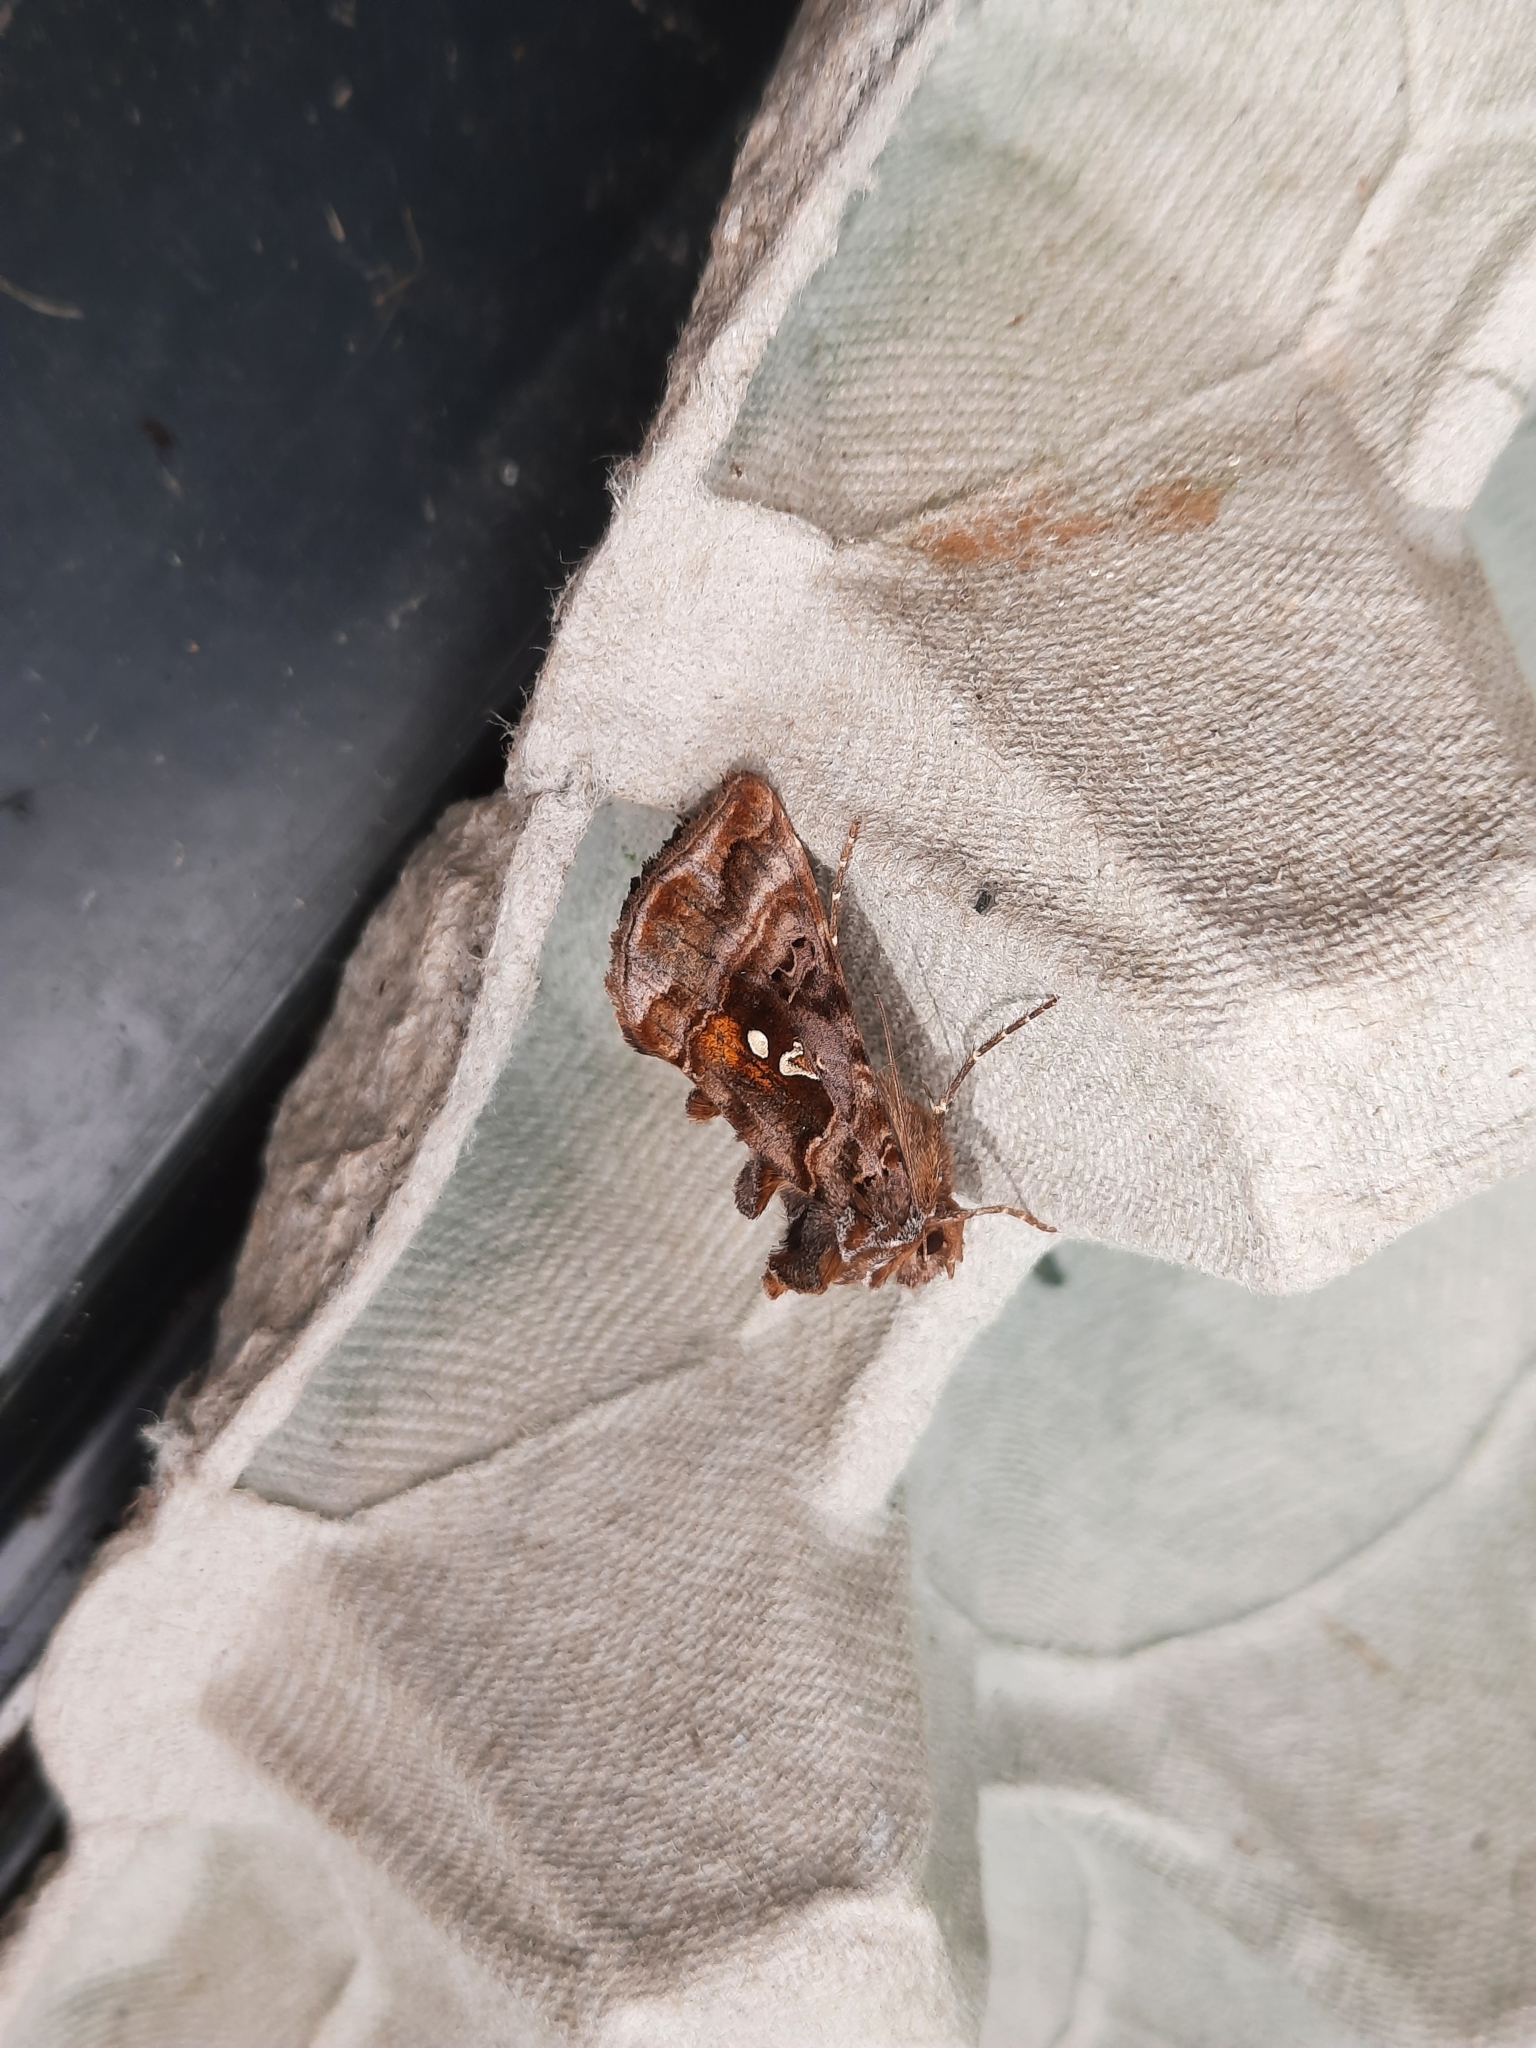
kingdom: Animalia
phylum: Arthropoda
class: Insecta
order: Lepidoptera
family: Noctuidae
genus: Autographa
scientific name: Autographa pulchrina
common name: Beautiful golden y
